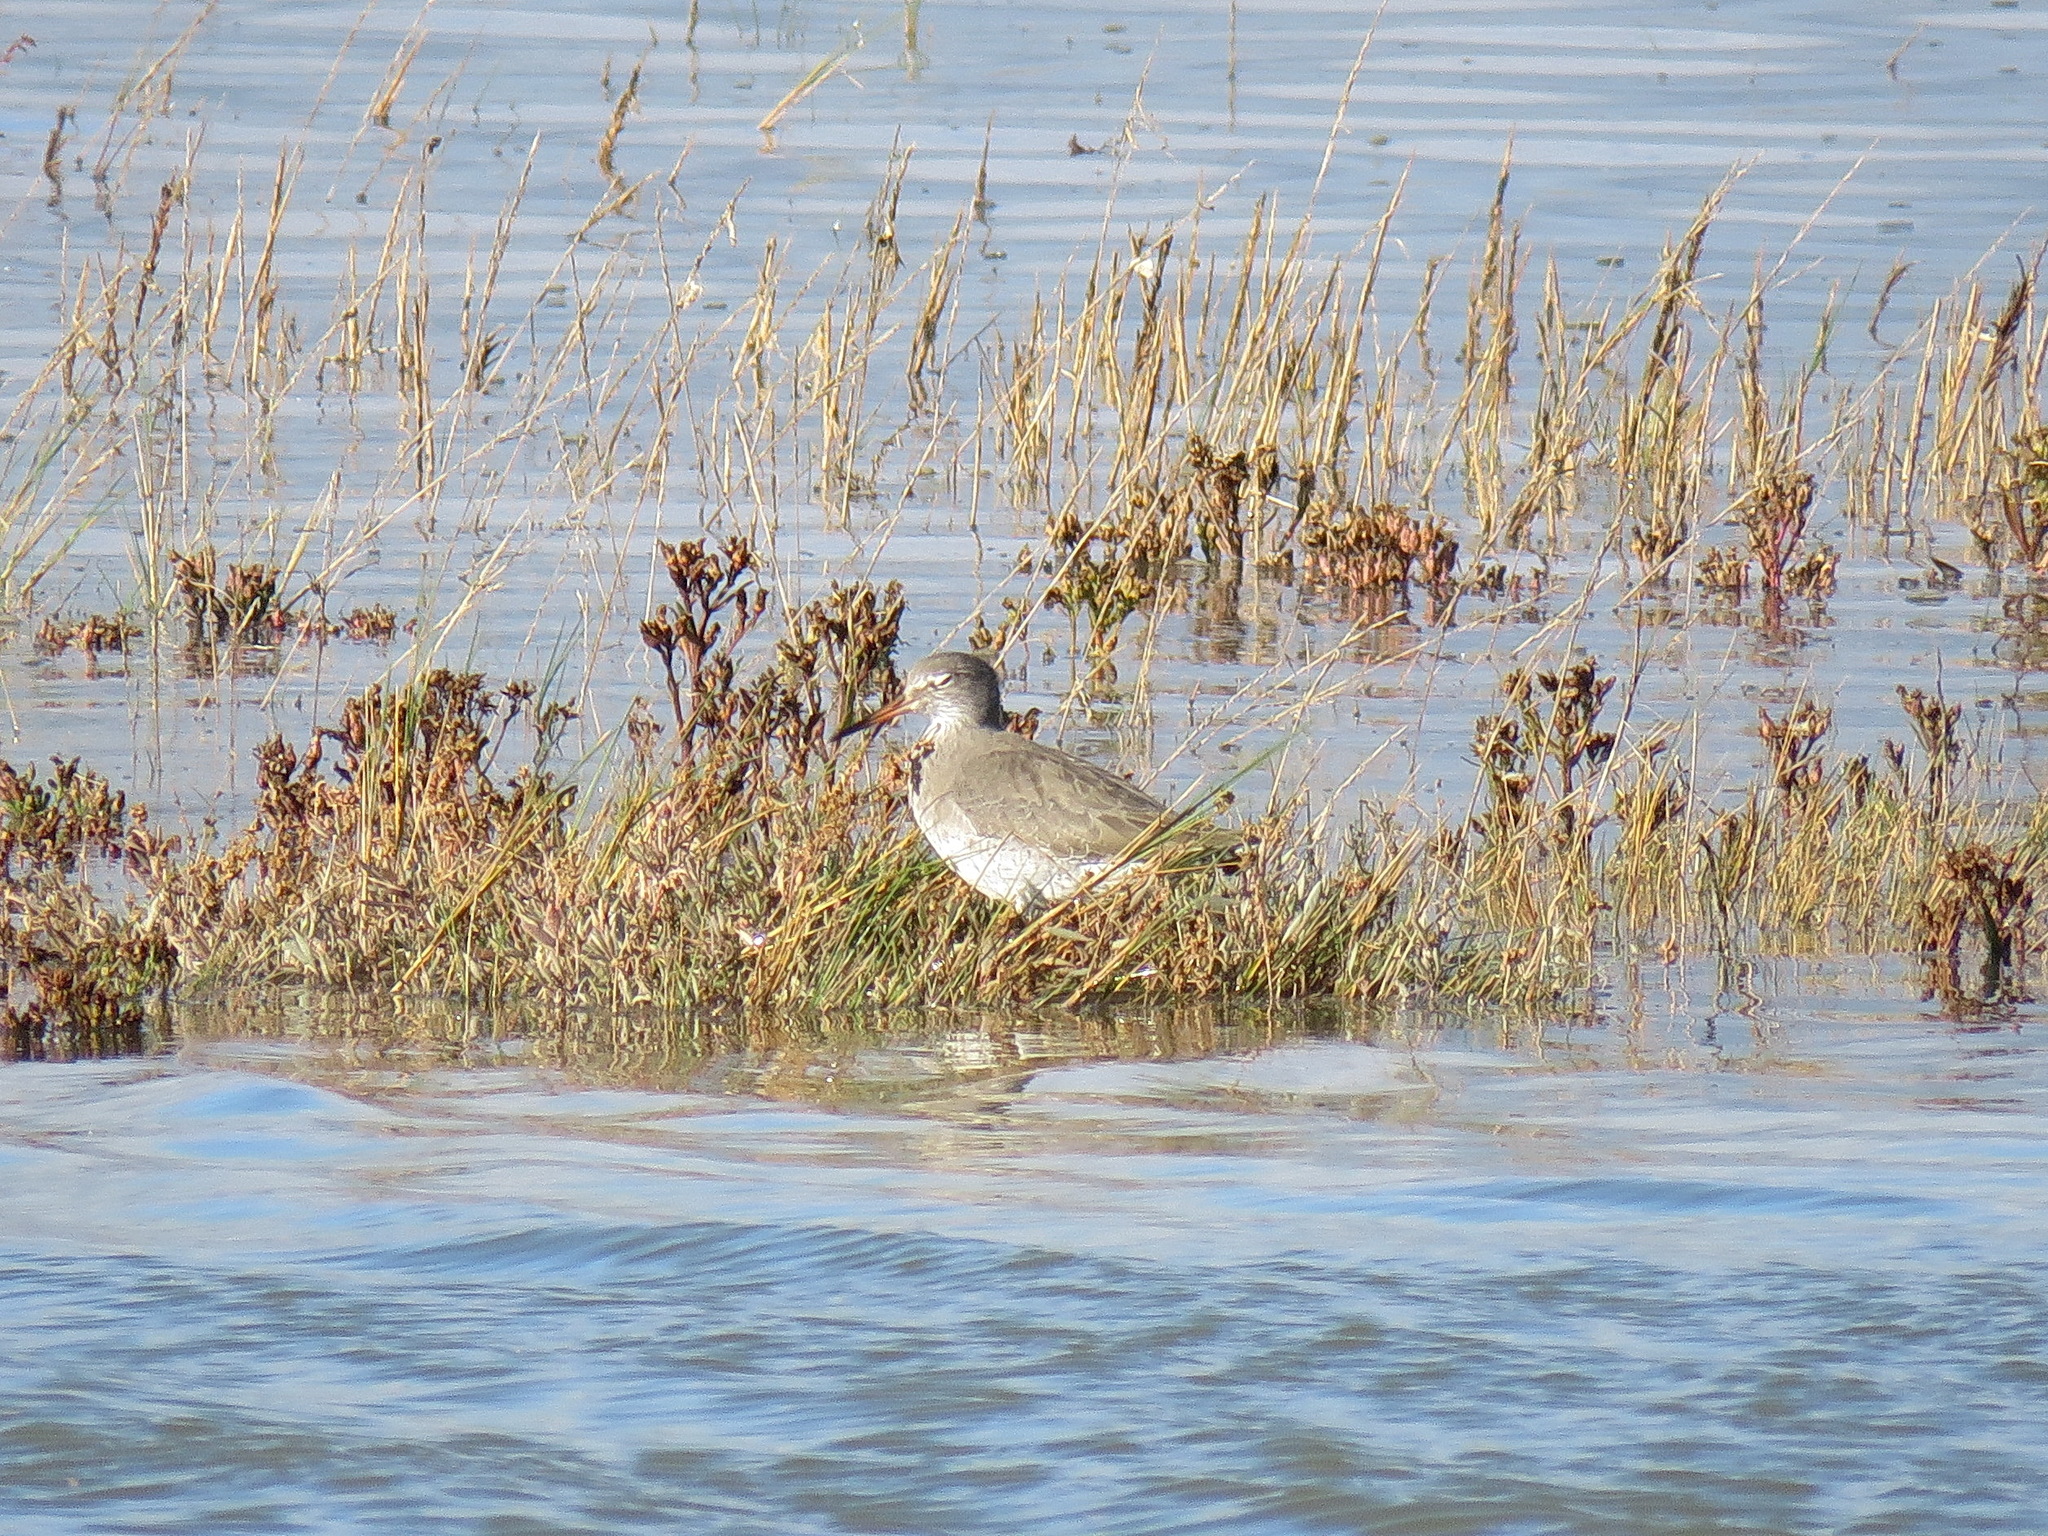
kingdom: Animalia
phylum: Chordata
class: Aves
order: Charadriiformes
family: Scolopacidae
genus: Tringa
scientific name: Tringa totanus
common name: Common redshank
